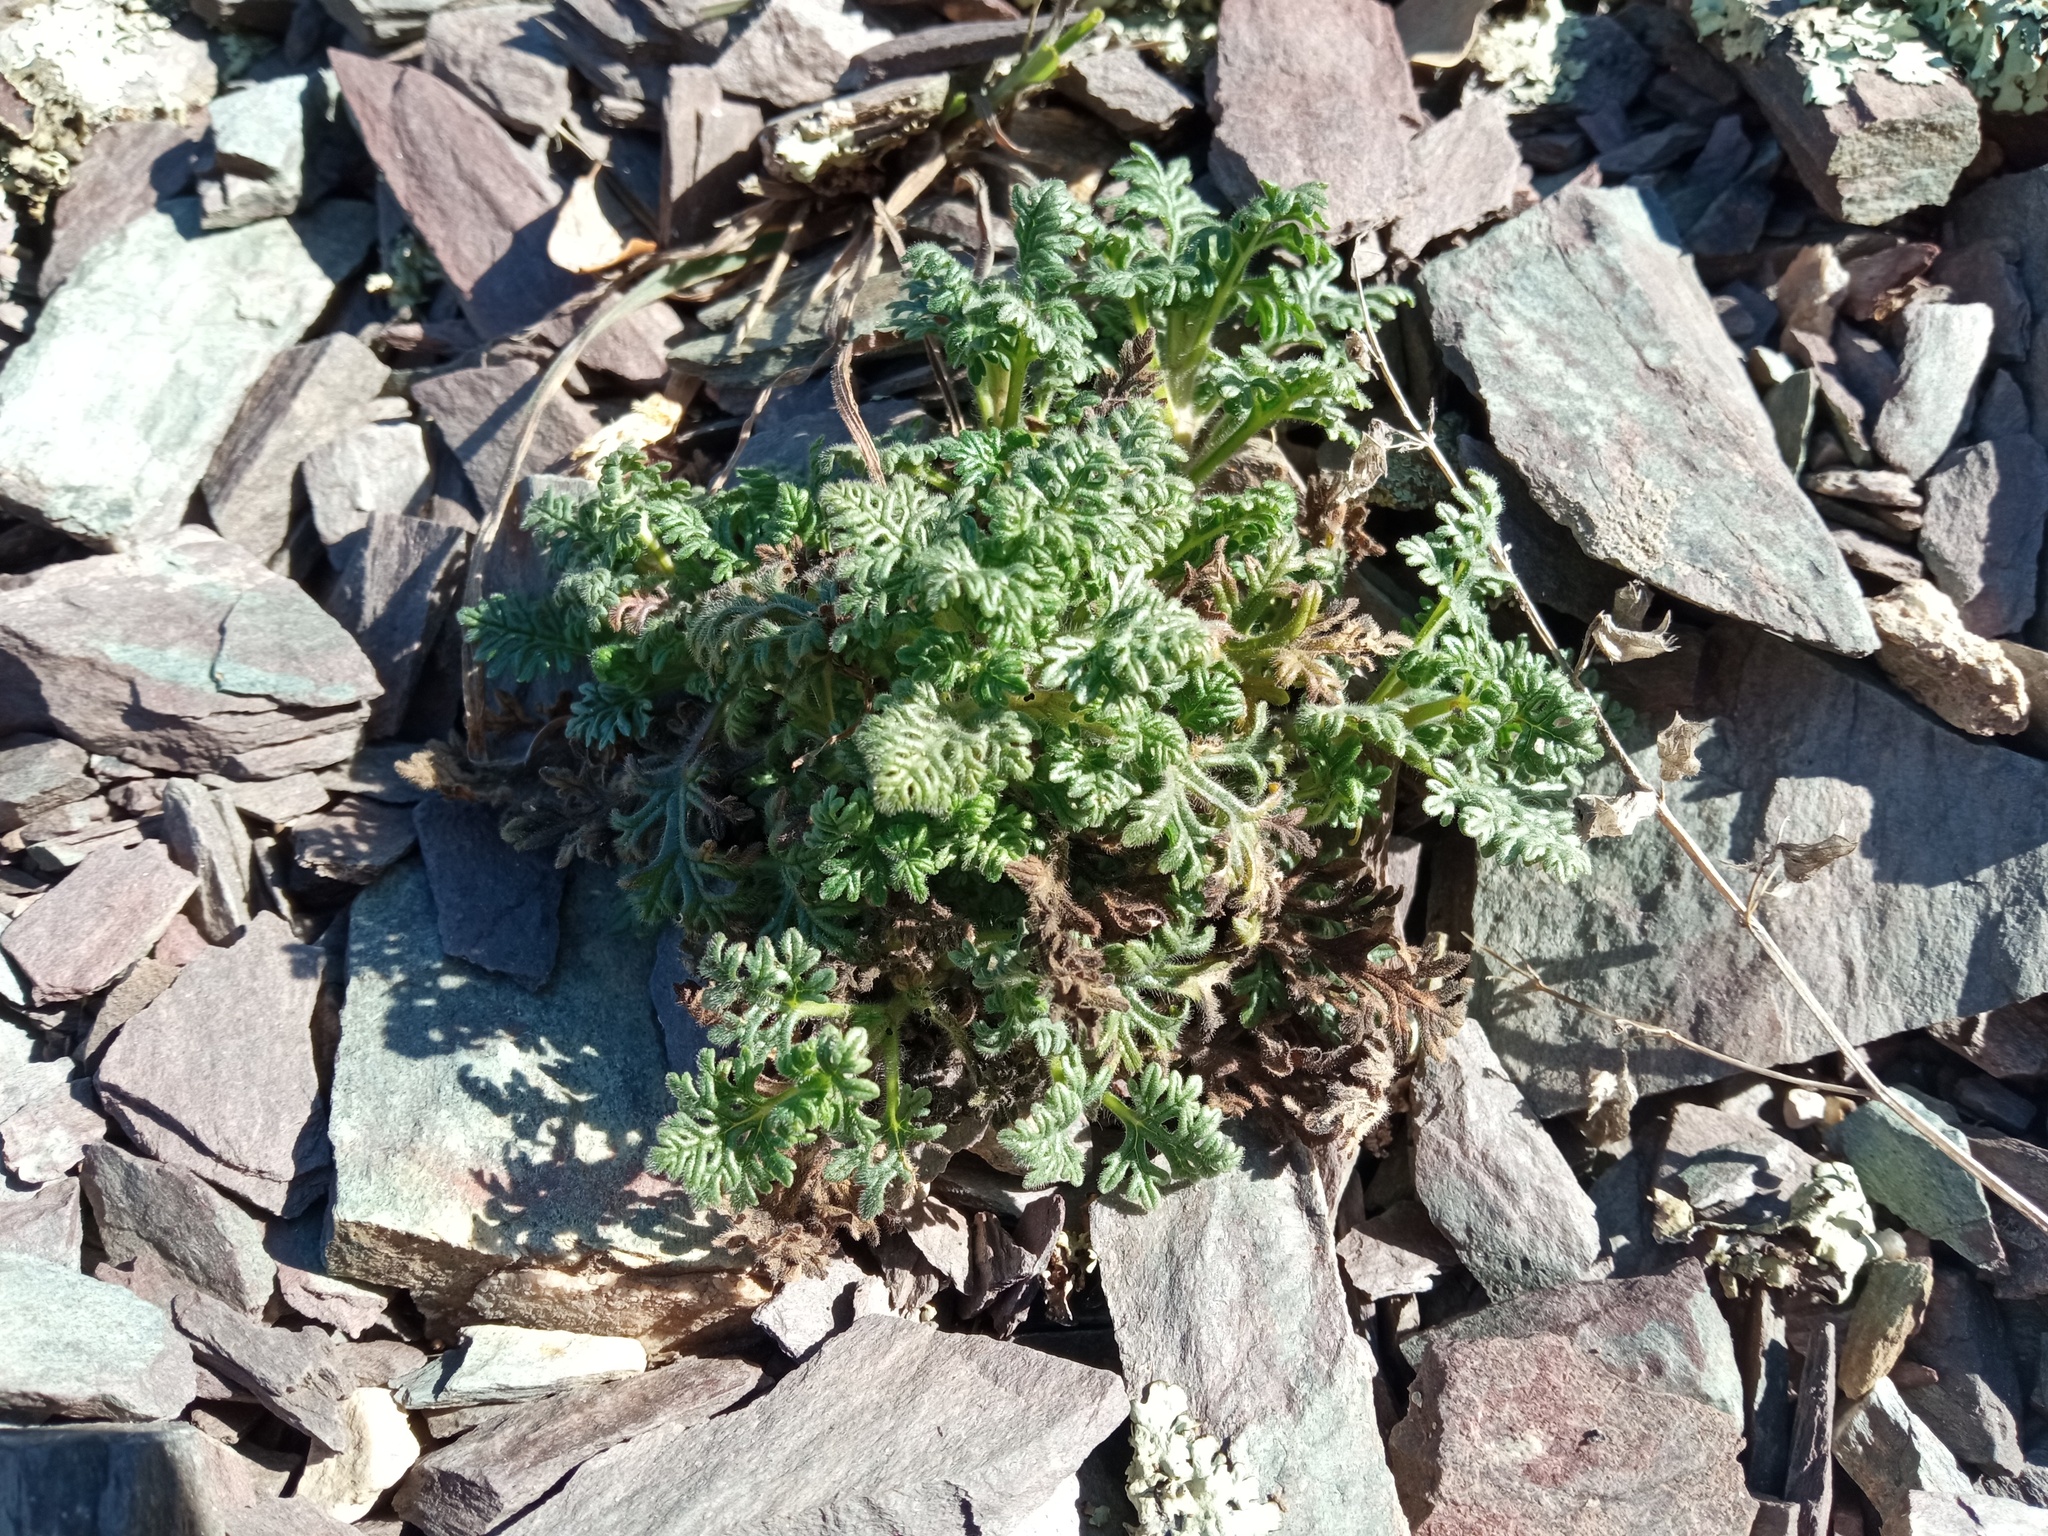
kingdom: Plantae
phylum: Tracheophyta
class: Magnoliopsida
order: Lamiales
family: Lamiaceae
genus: Teucrium
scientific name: Teucrium botrys
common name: Cut-leaved germander
